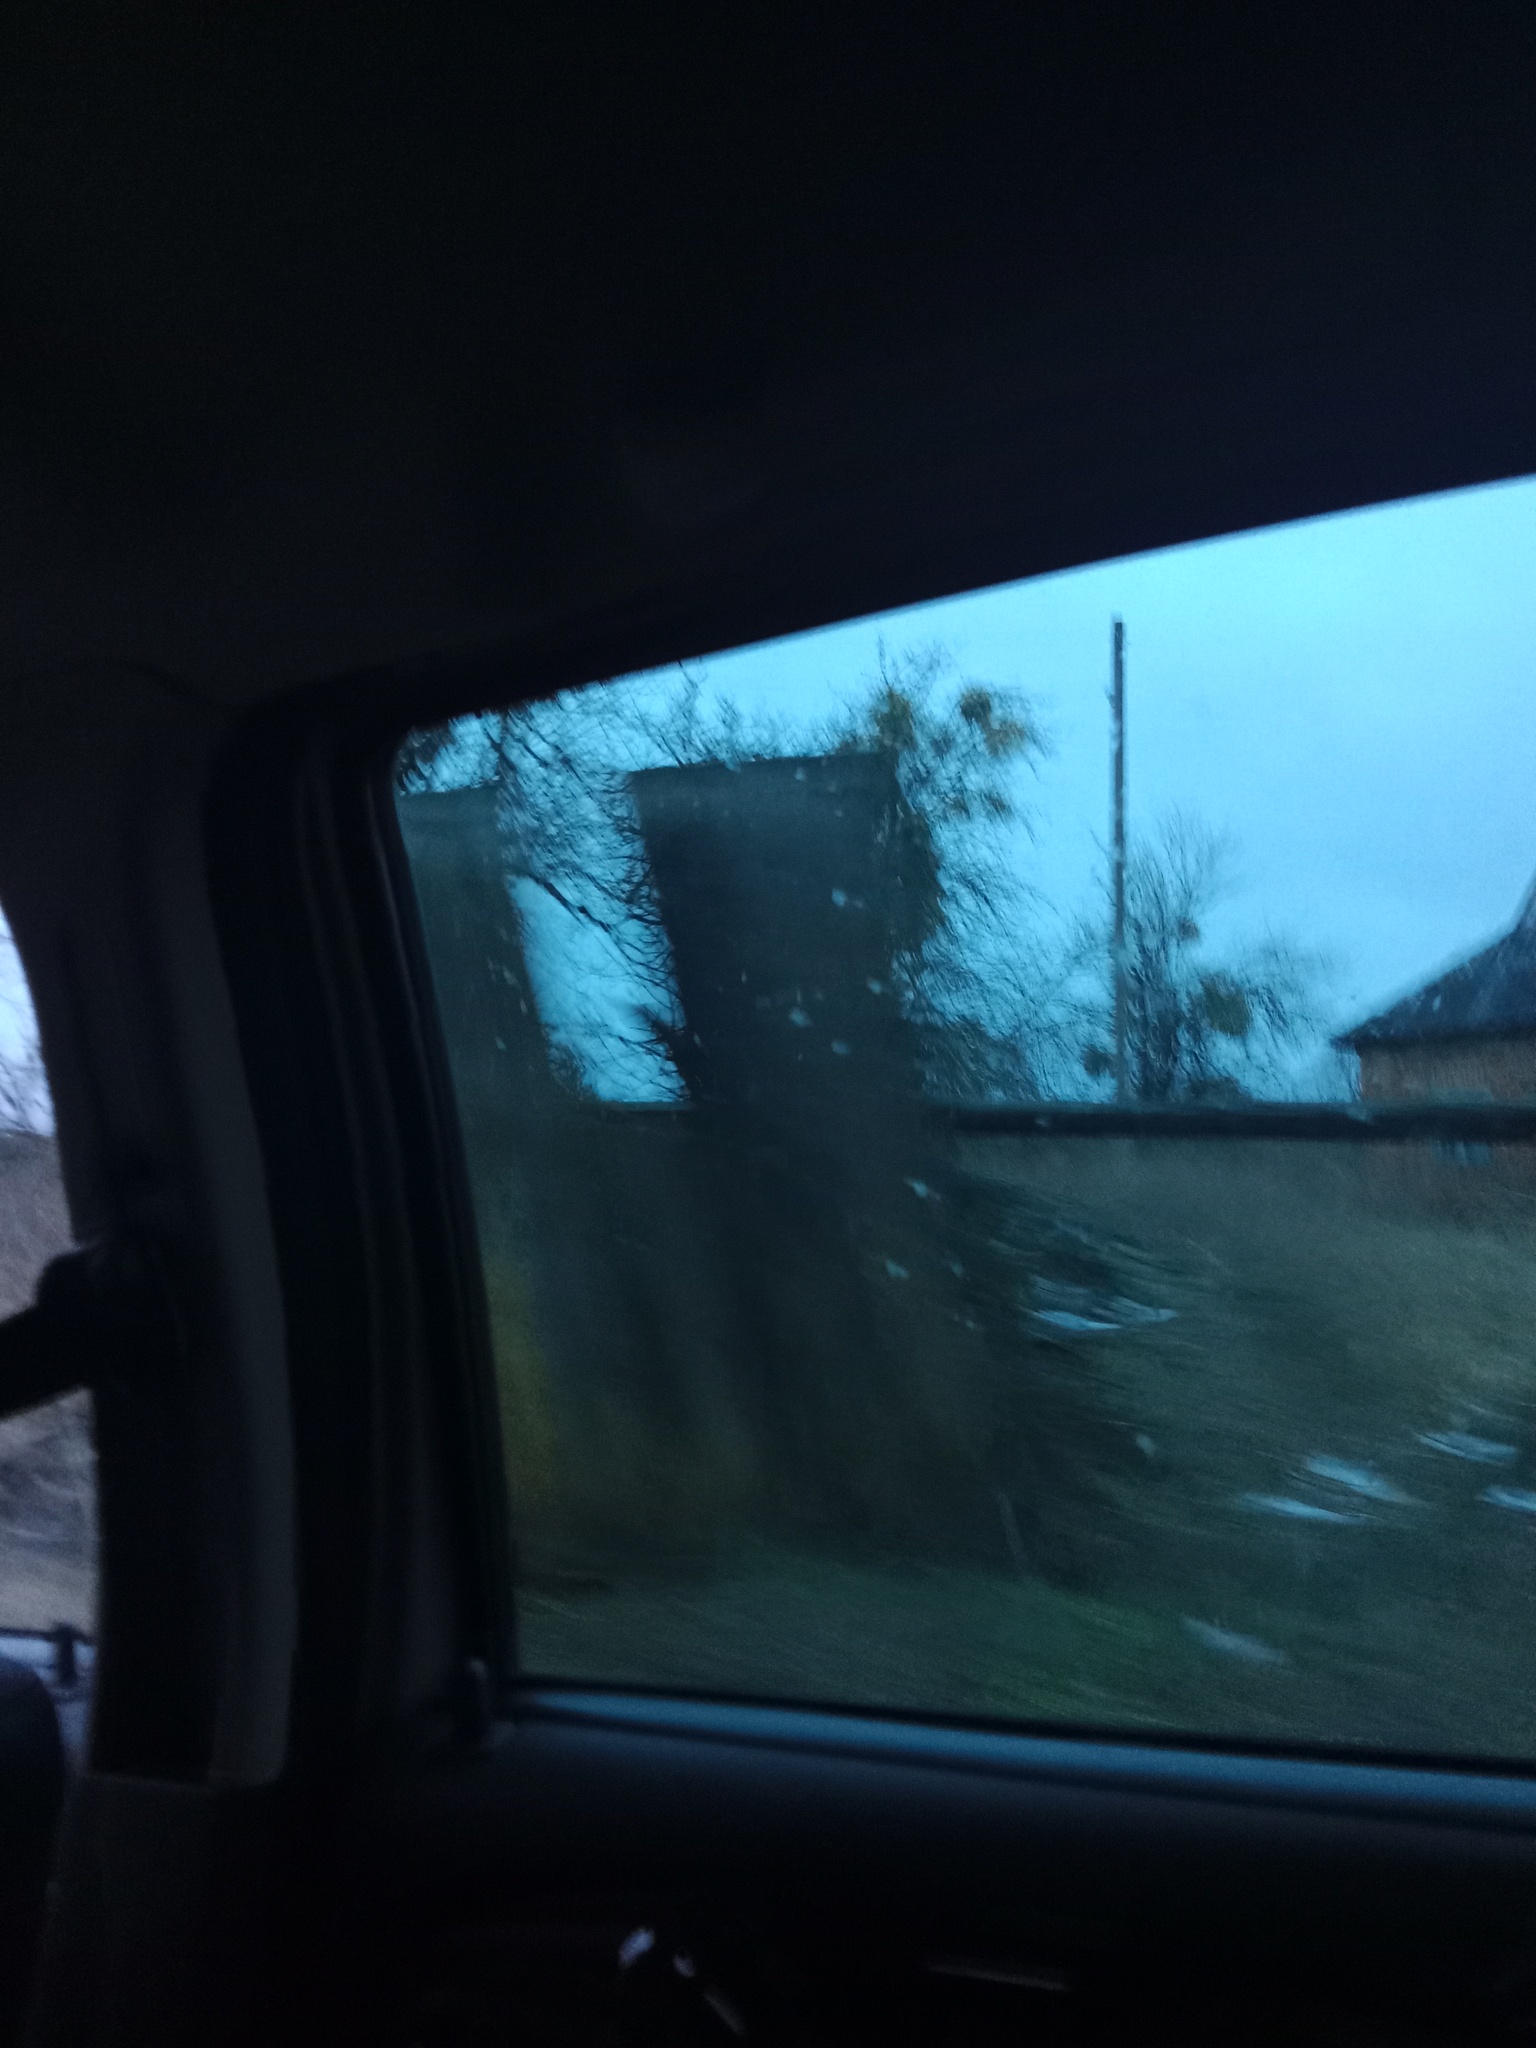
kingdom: Plantae
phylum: Tracheophyta
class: Magnoliopsida
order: Santalales
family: Viscaceae
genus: Viscum
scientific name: Viscum album
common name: Mistletoe
